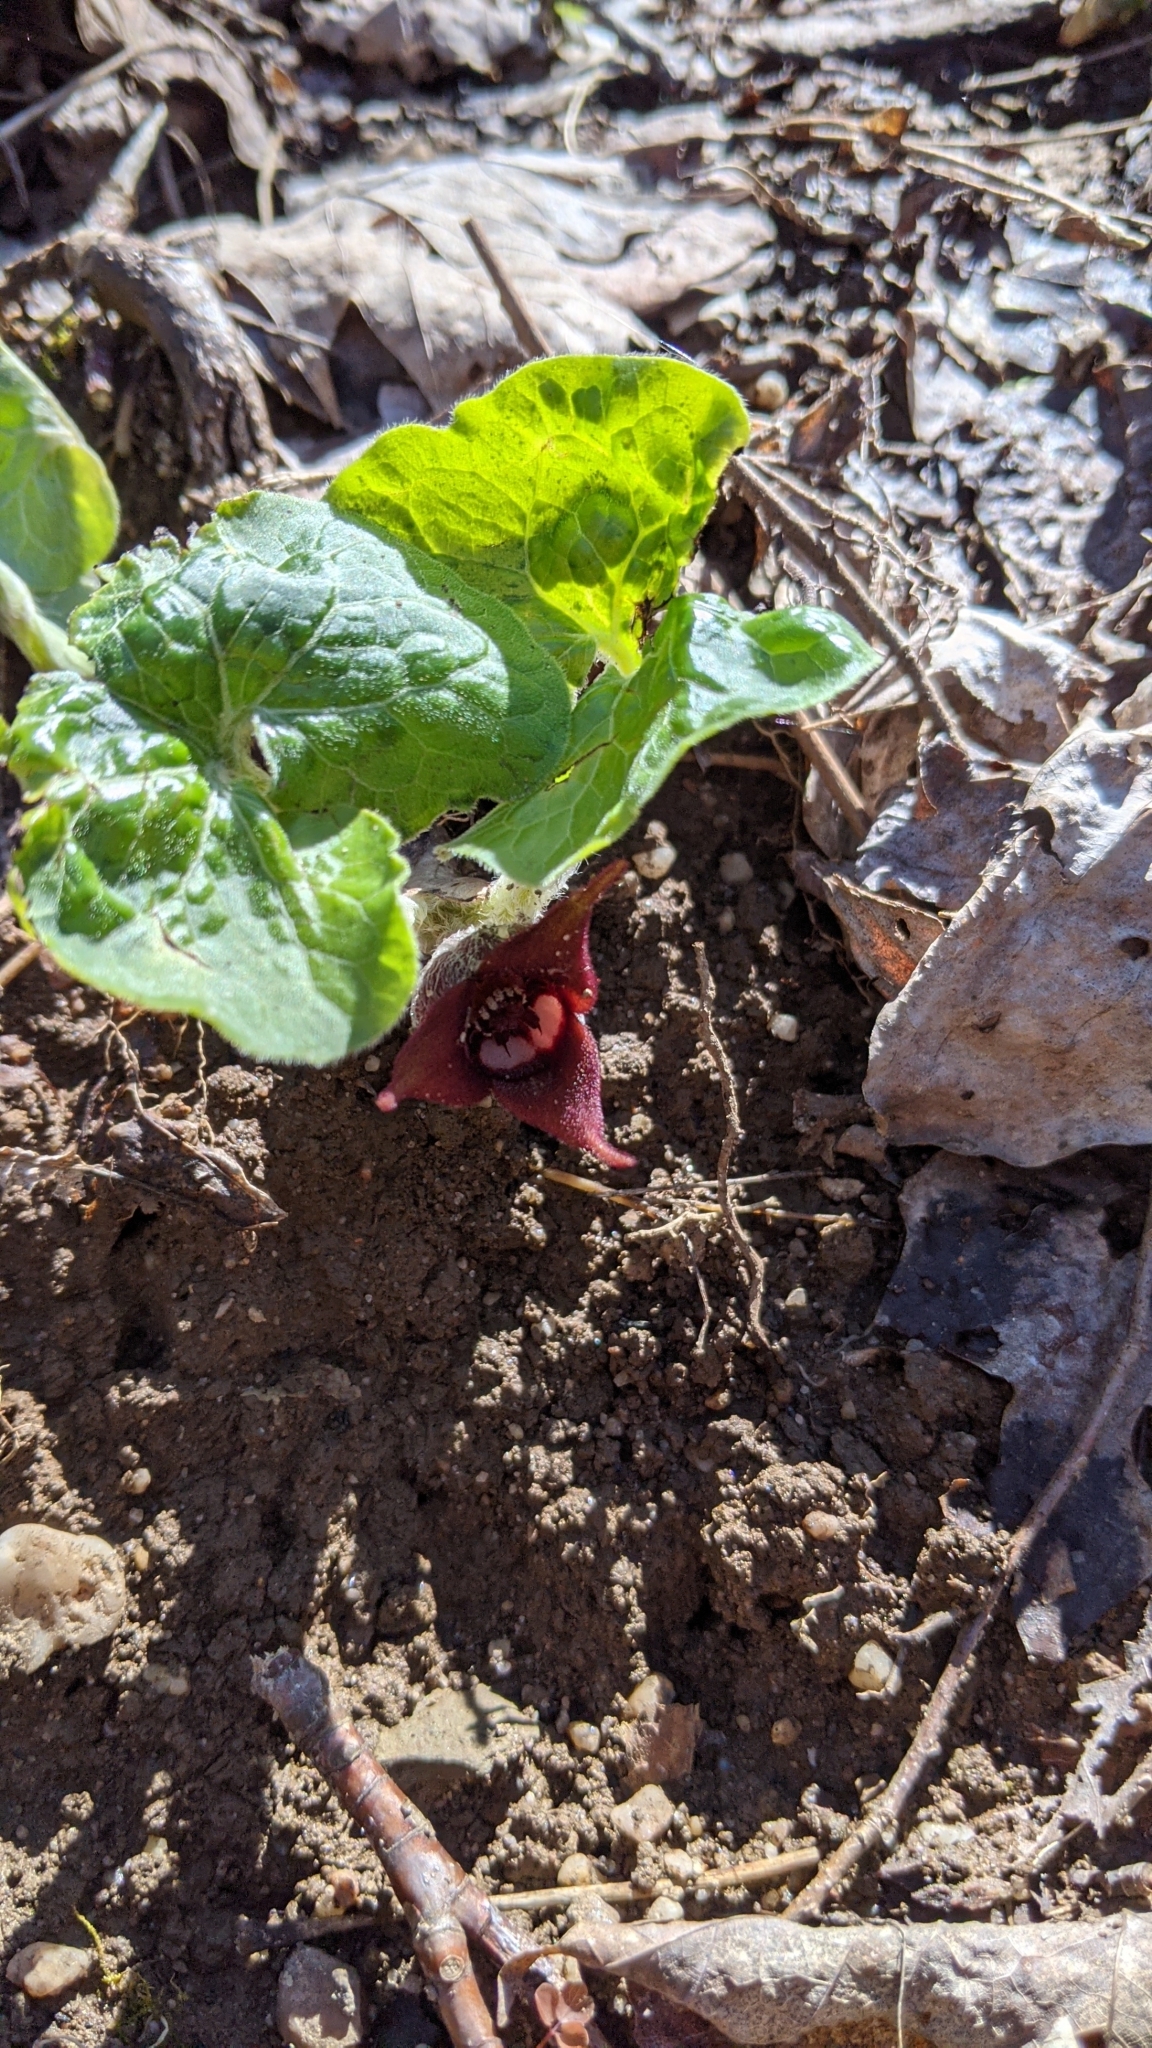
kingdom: Plantae
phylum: Tracheophyta
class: Magnoliopsida
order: Piperales
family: Aristolochiaceae
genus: Asarum
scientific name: Asarum canadense
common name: Wild ginger
